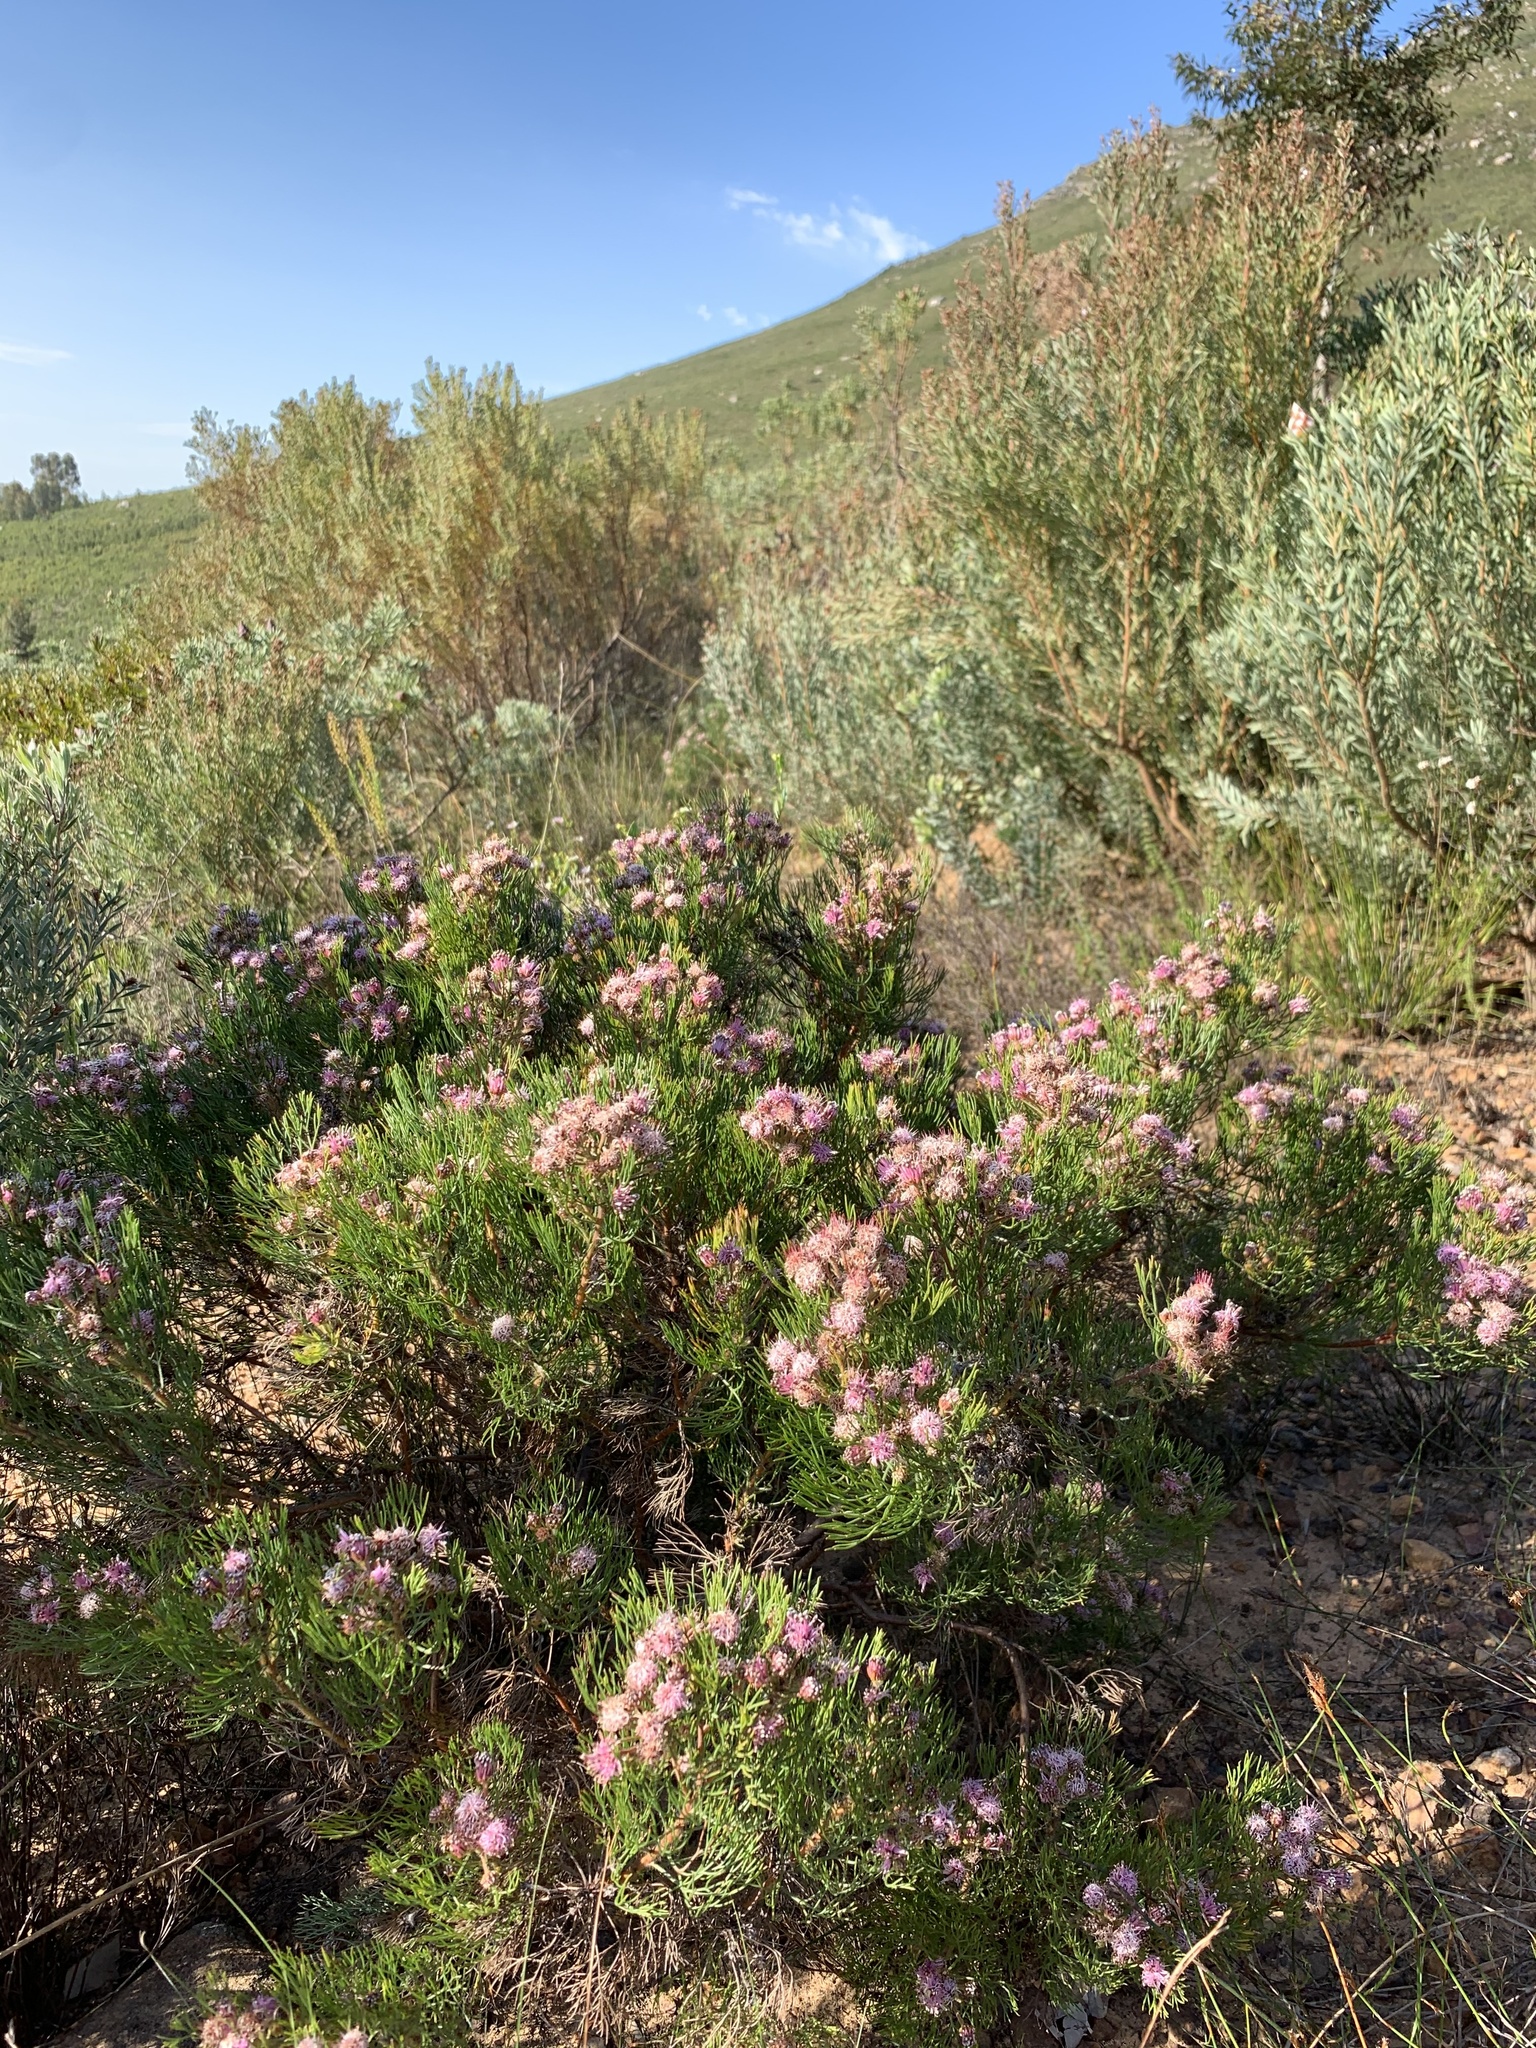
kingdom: Plantae
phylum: Tracheophyta
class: Magnoliopsida
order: Proteales
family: Proteaceae
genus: Serruria
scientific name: Serruria fasciflora
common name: Common pin spiderhead
